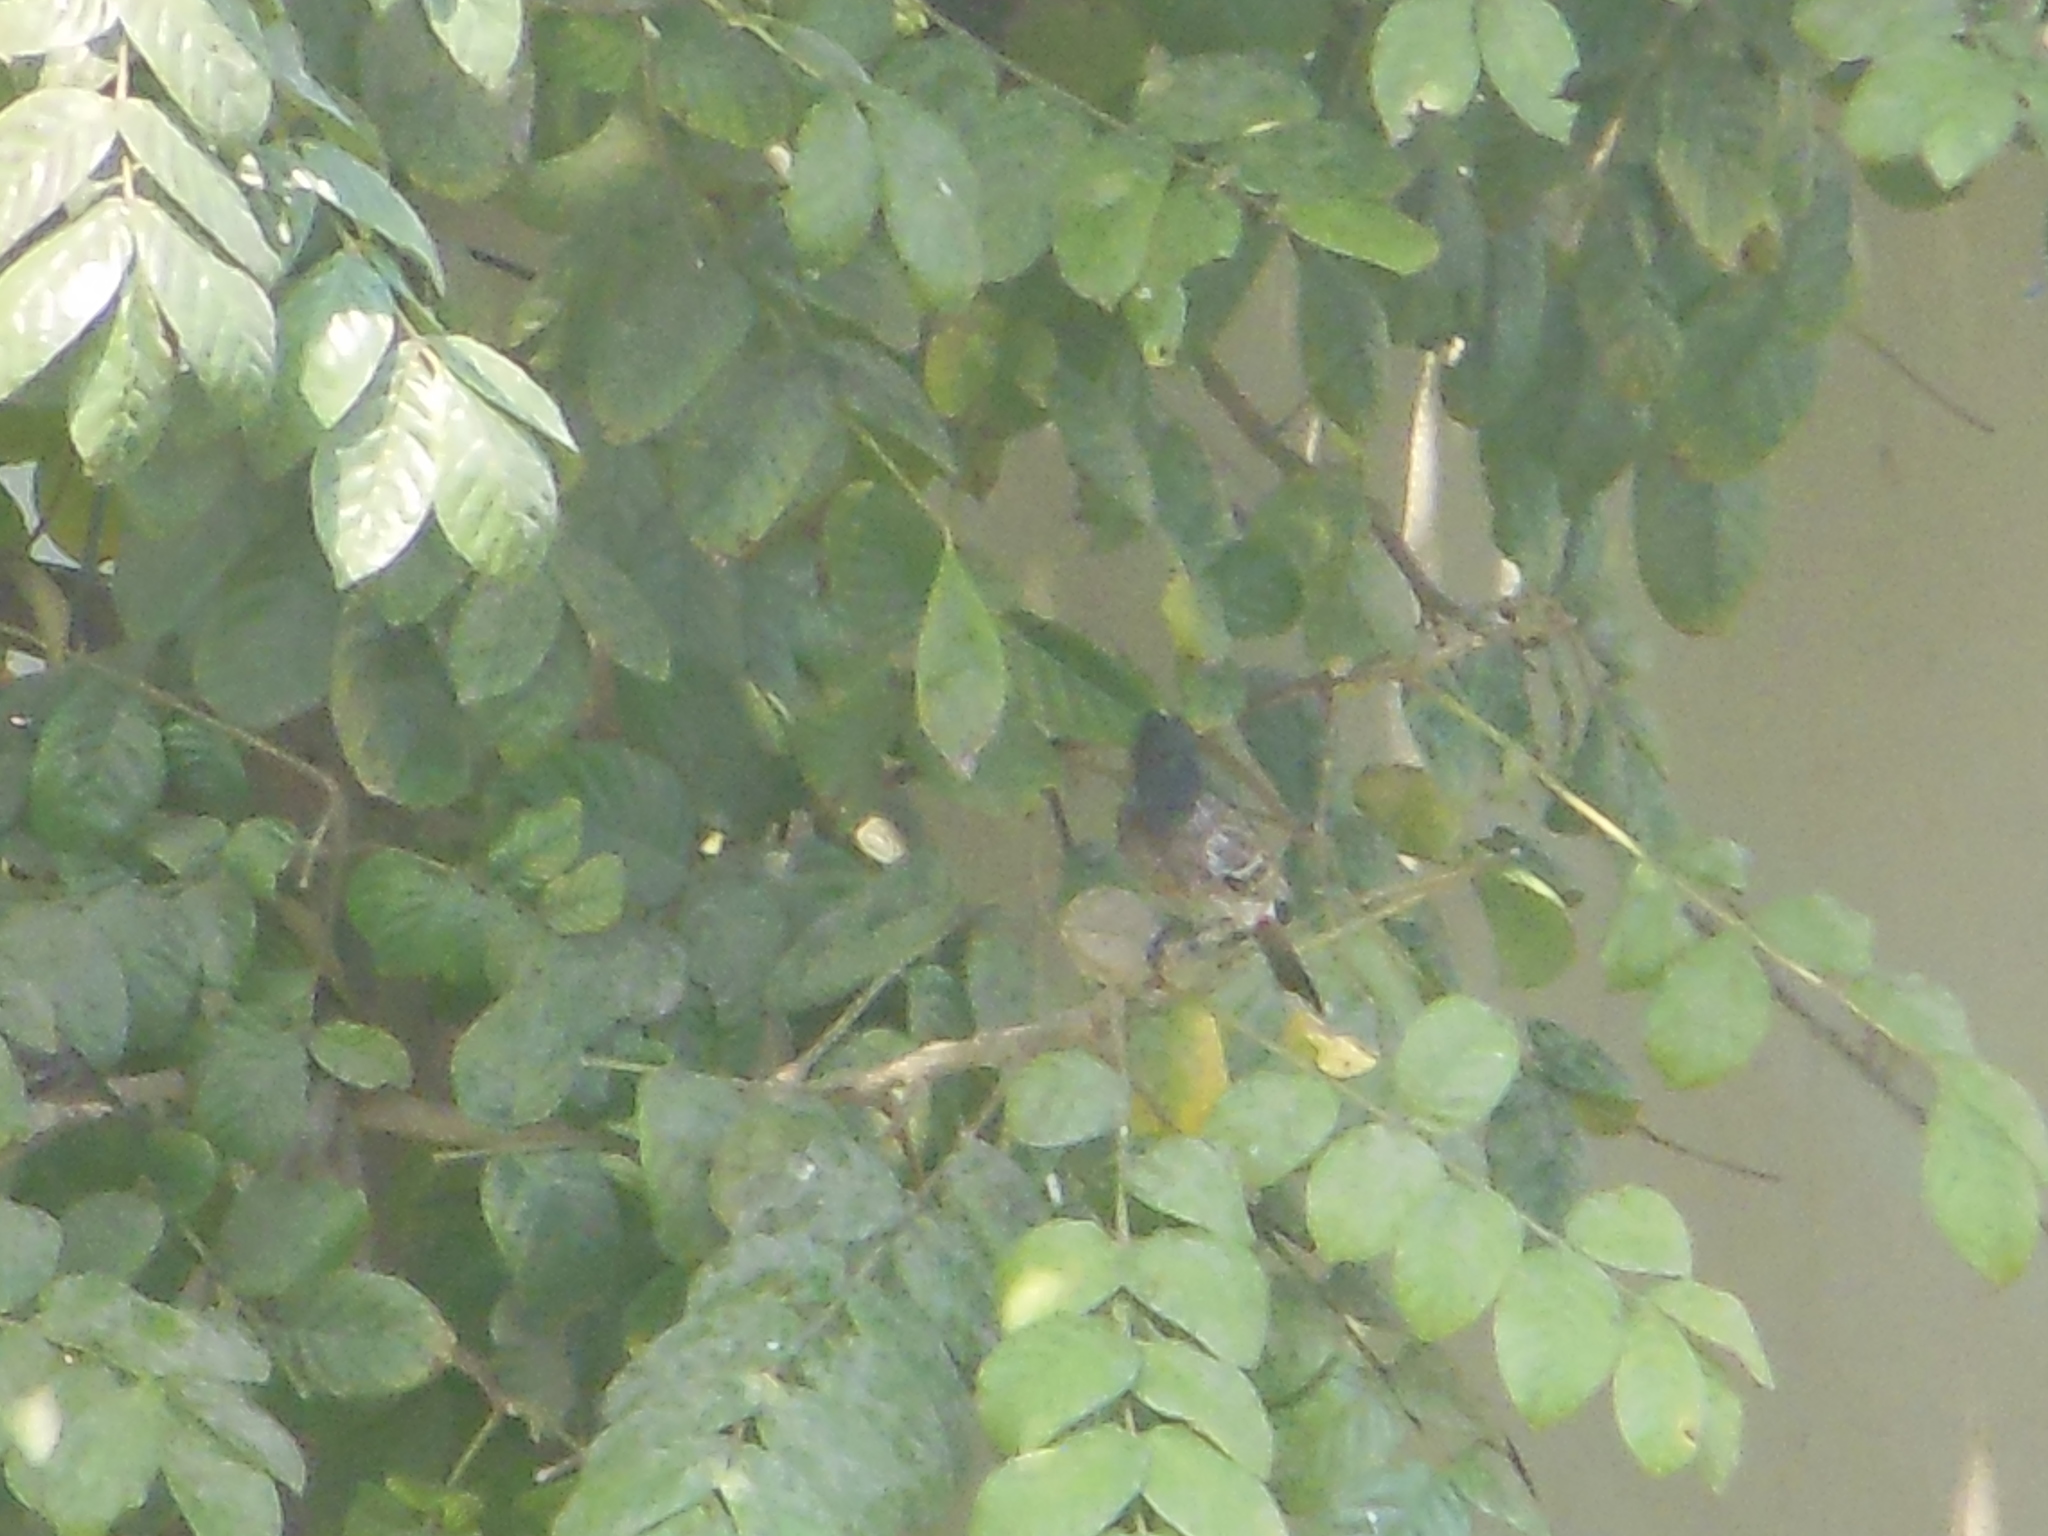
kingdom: Animalia
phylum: Chordata
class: Aves
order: Passeriformes
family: Pycnonotidae
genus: Pycnonotus
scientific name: Pycnonotus cafer
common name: Red-vented bulbul
